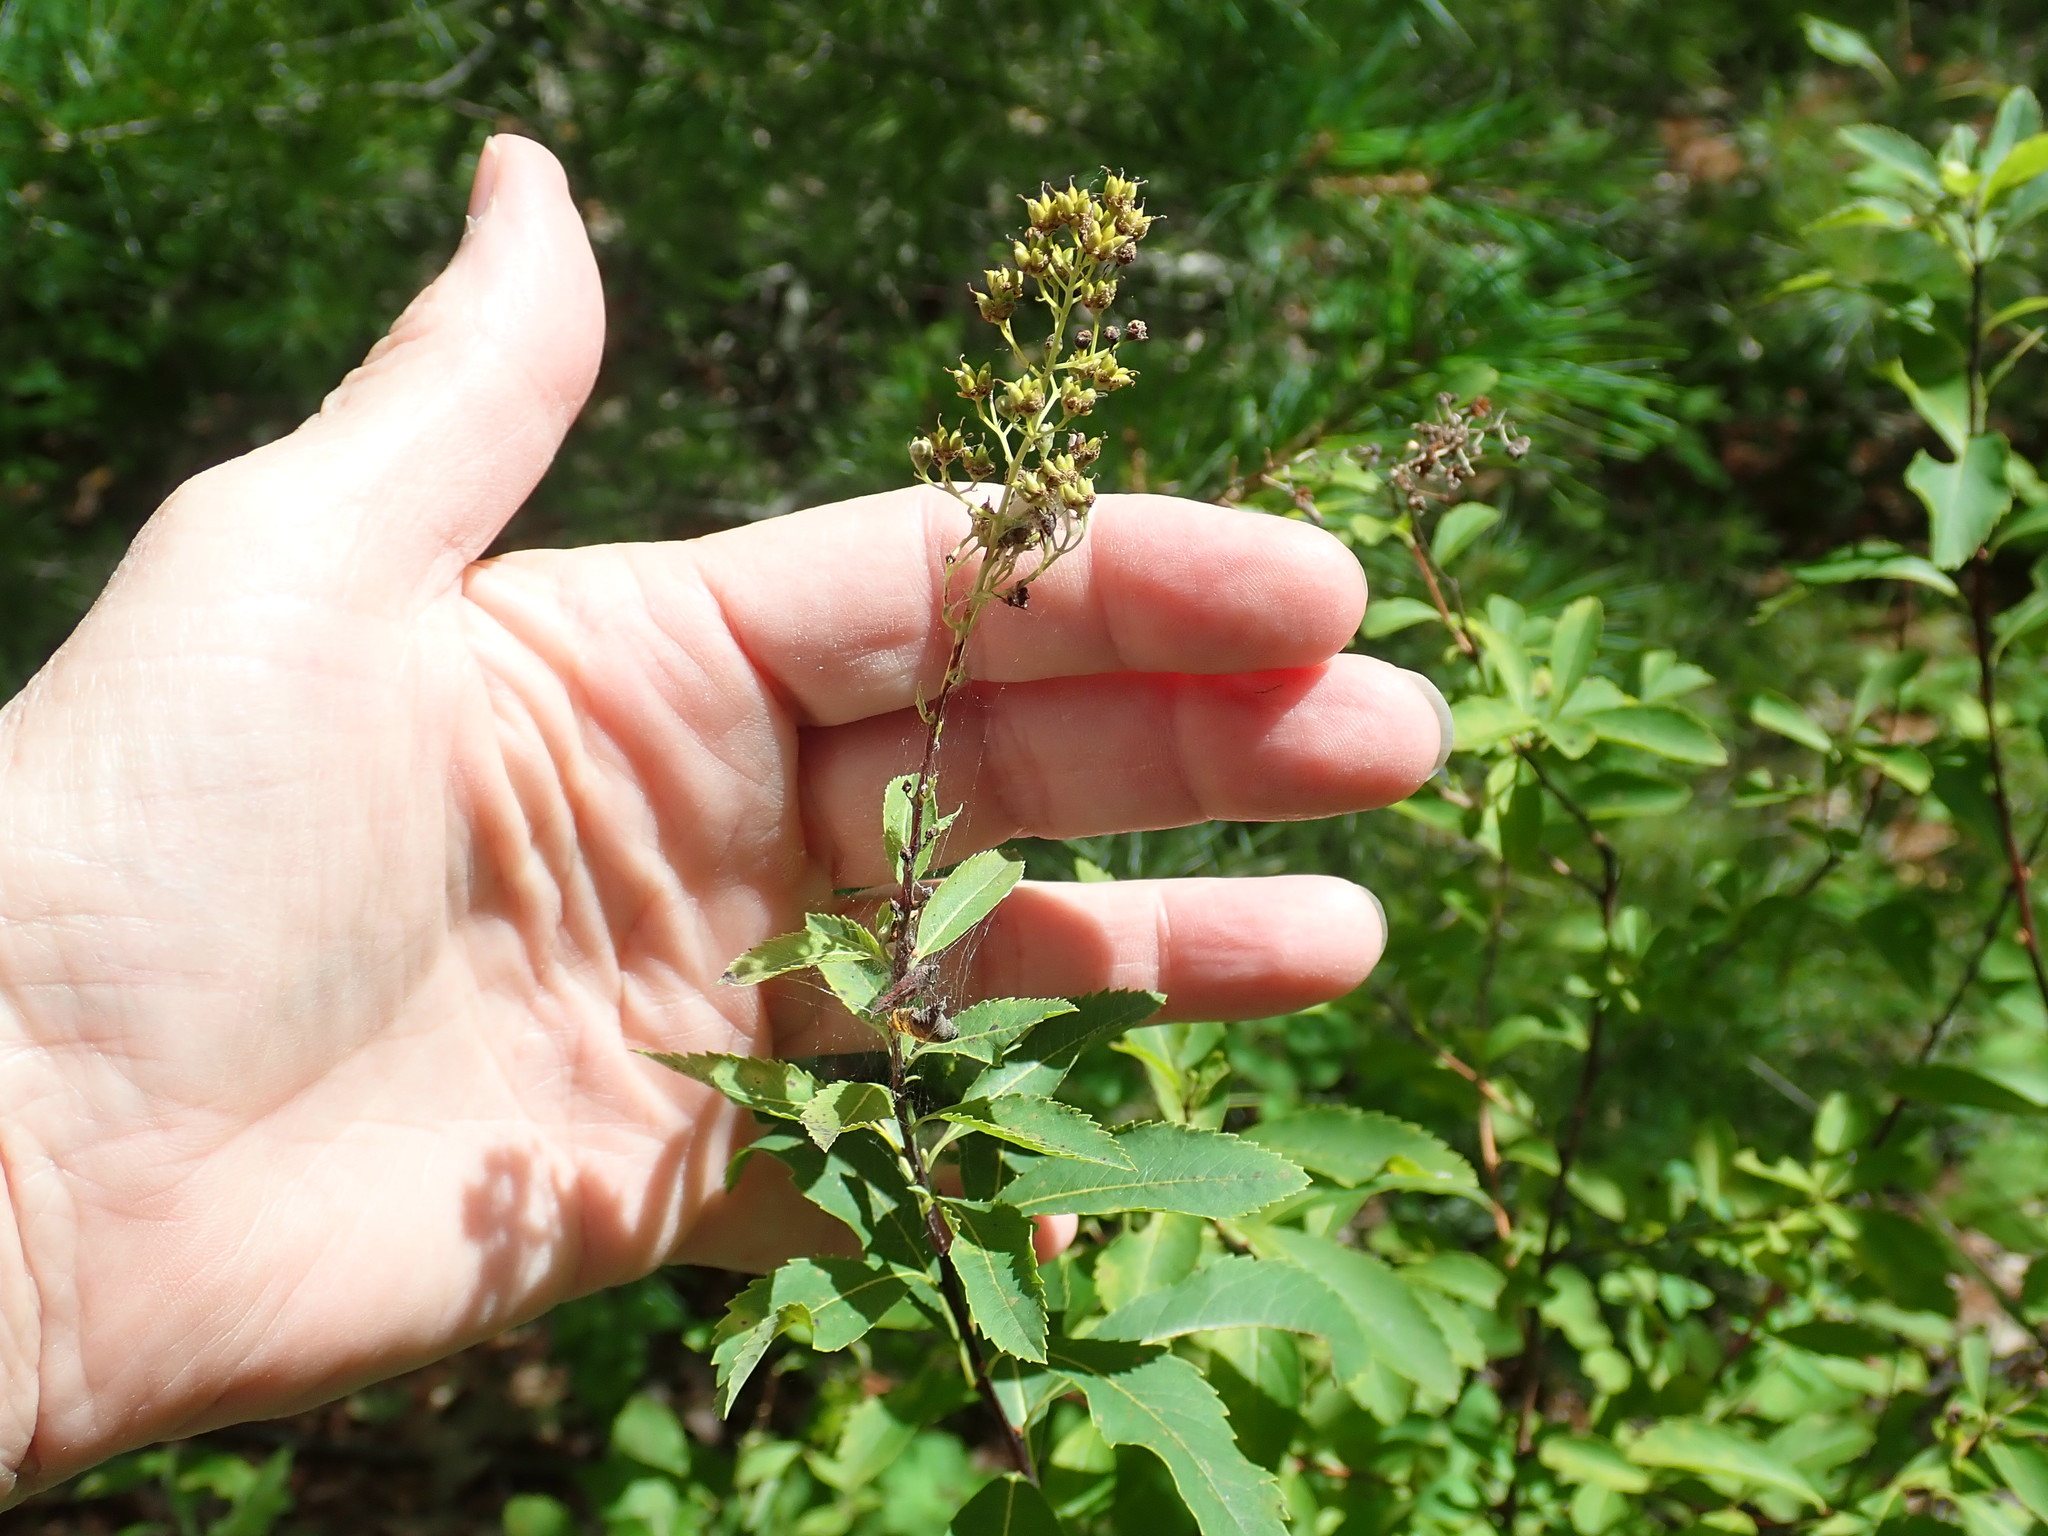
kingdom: Plantae
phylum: Tracheophyta
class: Magnoliopsida
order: Rosales
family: Rosaceae
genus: Spiraea
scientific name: Spiraea alba
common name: Pale bridewort
